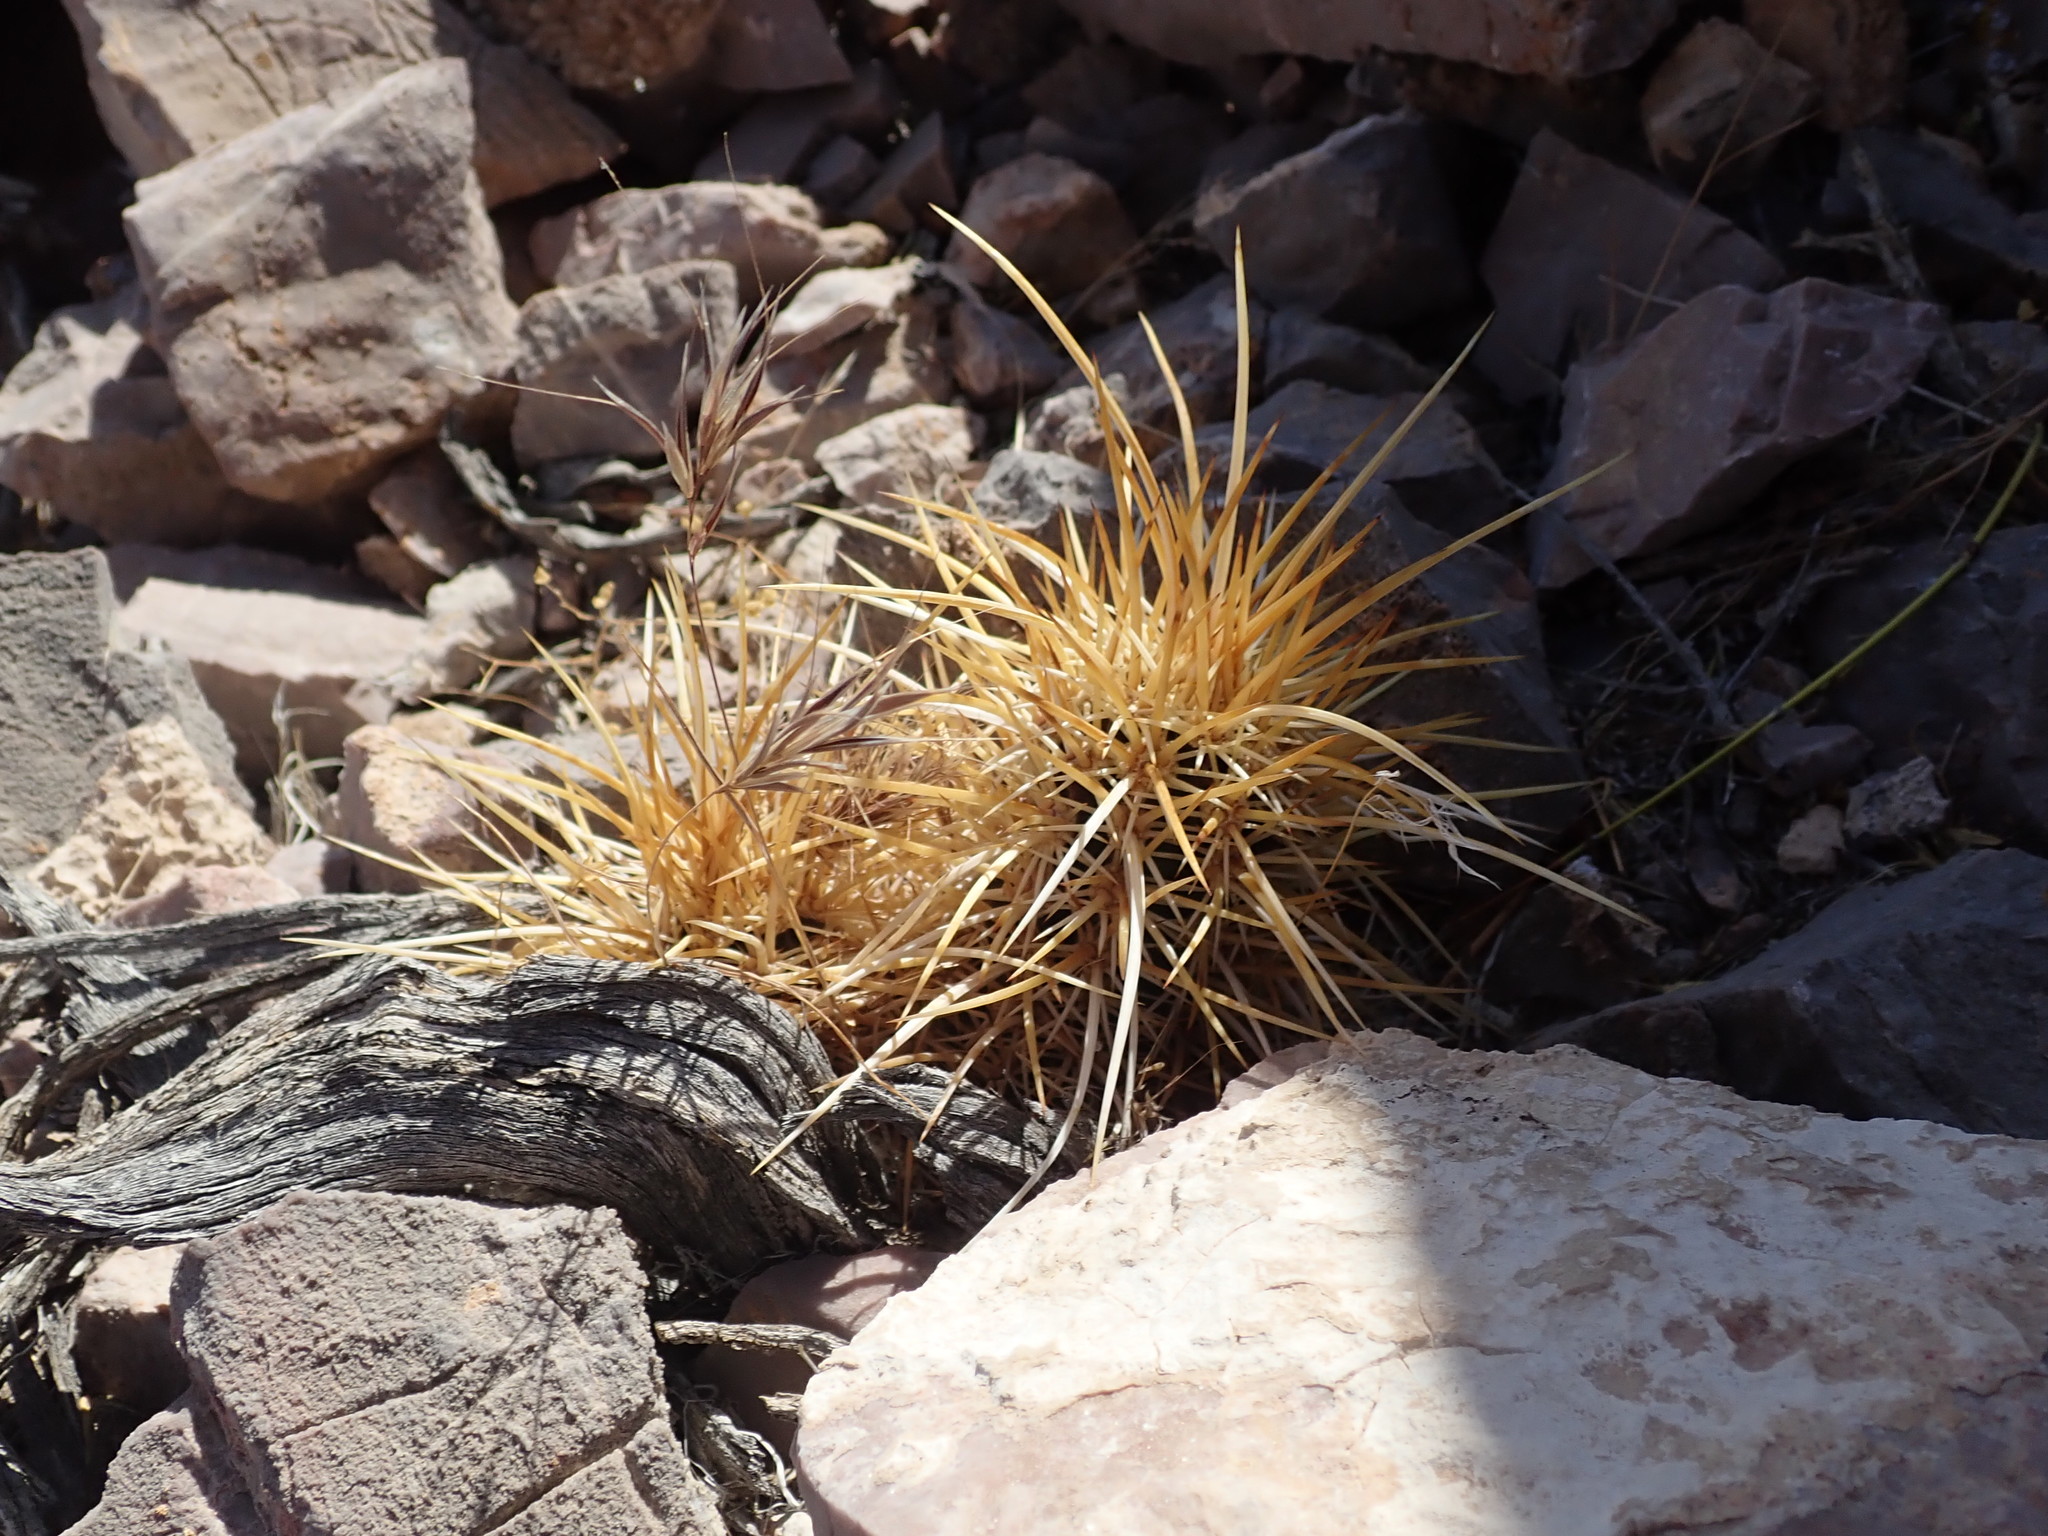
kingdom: Plantae
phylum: Tracheophyta
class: Magnoliopsida
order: Caryophyllales
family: Cactaceae
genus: Echinocereus
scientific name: Echinocereus engelmannii
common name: Engelmann's hedgehog cactus
